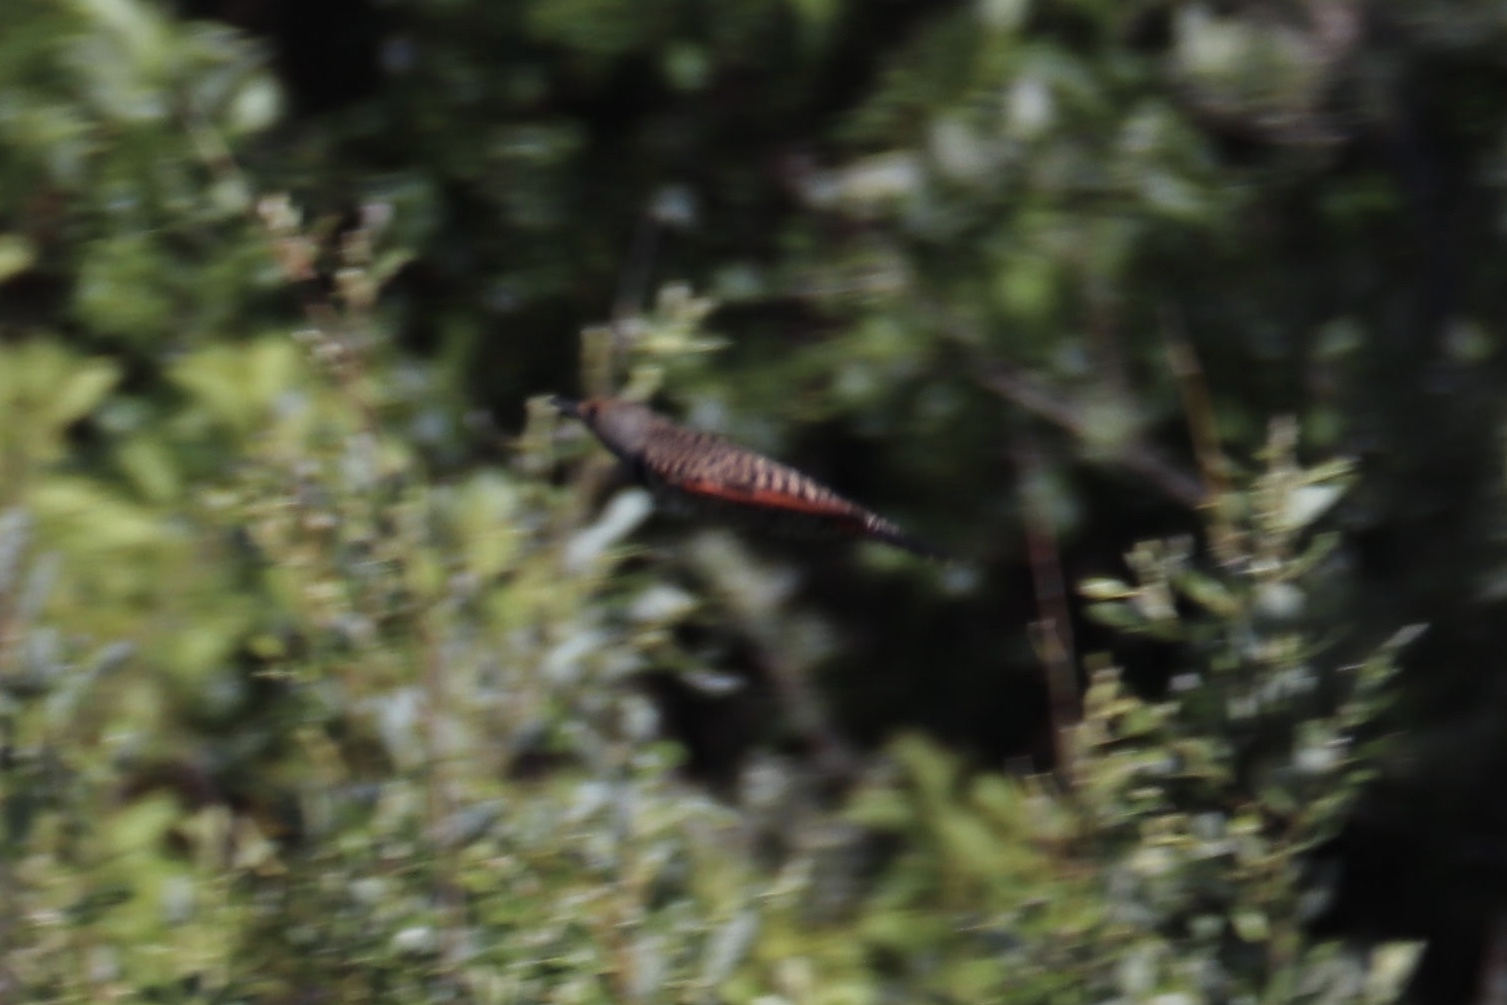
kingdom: Animalia
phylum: Chordata
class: Aves
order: Piciformes
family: Picidae
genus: Colaptes
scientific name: Colaptes auratus
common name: Northern flicker
